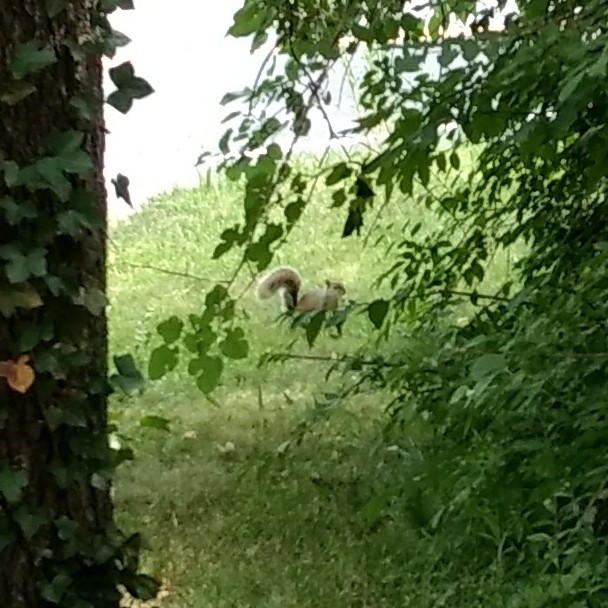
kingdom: Animalia
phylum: Chordata
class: Mammalia
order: Rodentia
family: Sciuridae
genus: Sciurus
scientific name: Sciurus carolinensis
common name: Eastern gray squirrel
